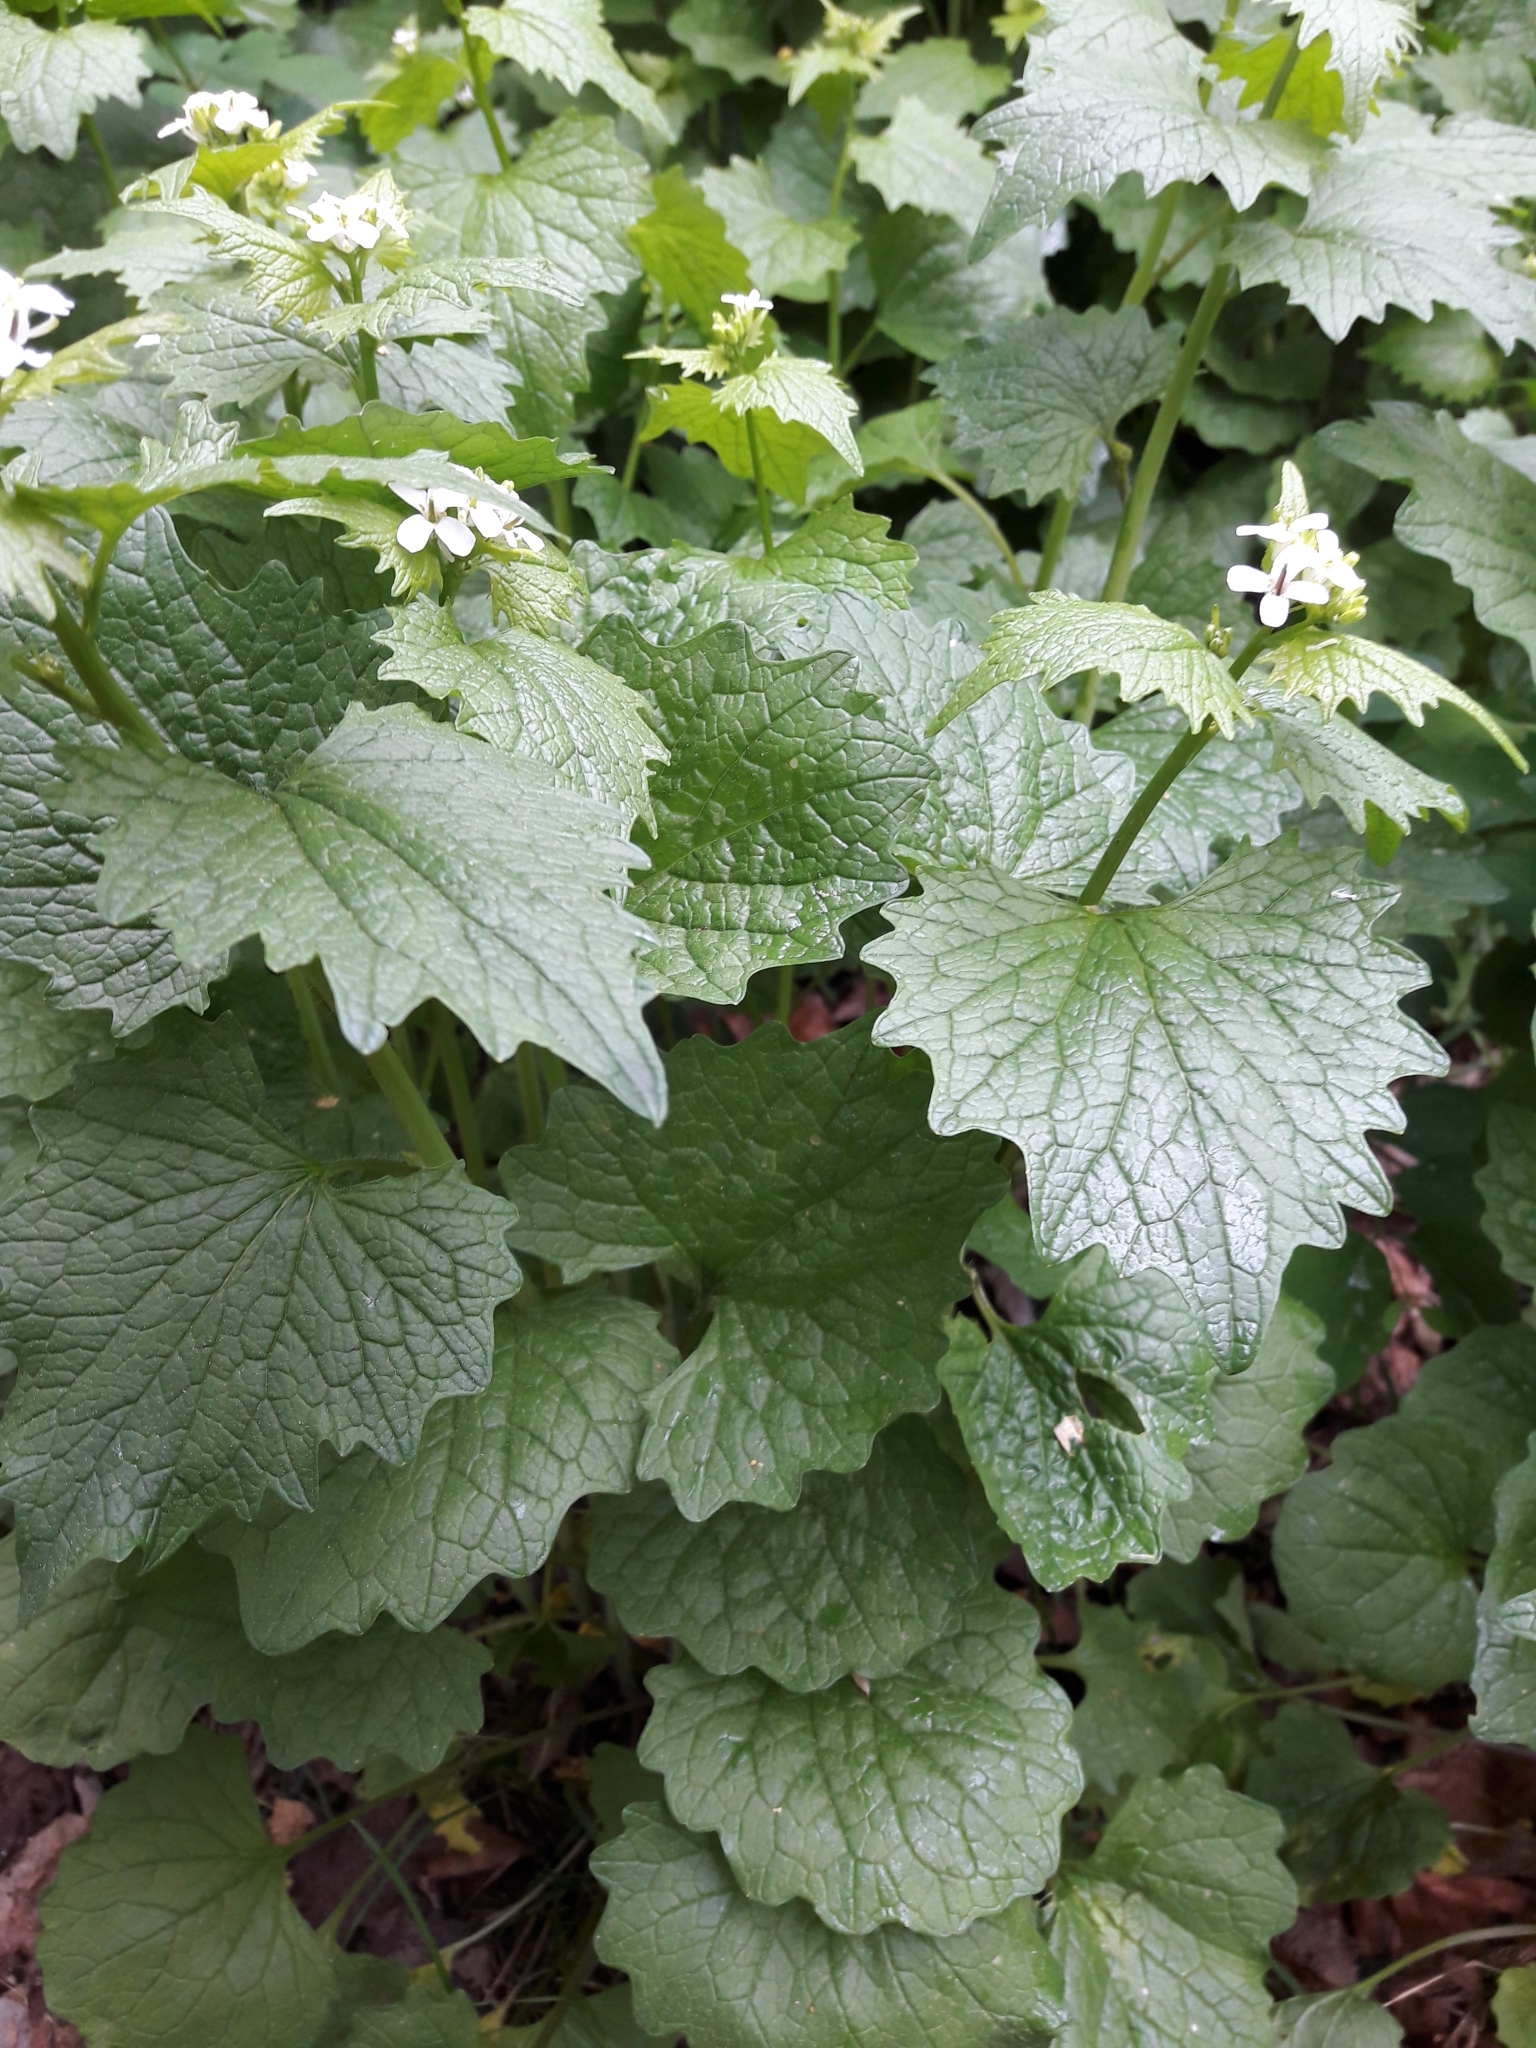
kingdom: Plantae
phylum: Tracheophyta
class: Magnoliopsida
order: Brassicales
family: Brassicaceae
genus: Alliaria
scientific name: Alliaria petiolata
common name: Garlic mustard
